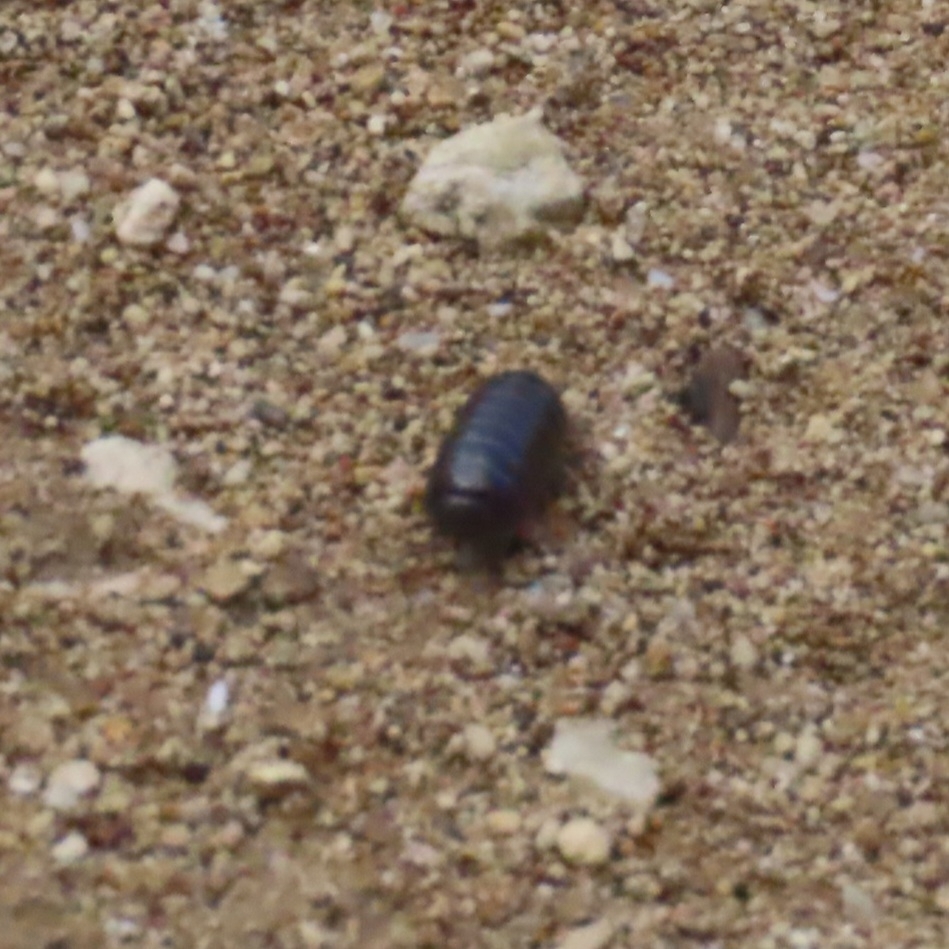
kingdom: Animalia
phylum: Arthropoda
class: Malacostraca
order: Isopoda
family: Armadillidiidae
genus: Armadillidium
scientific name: Armadillidium vulgare
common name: Common pill woodlouse
